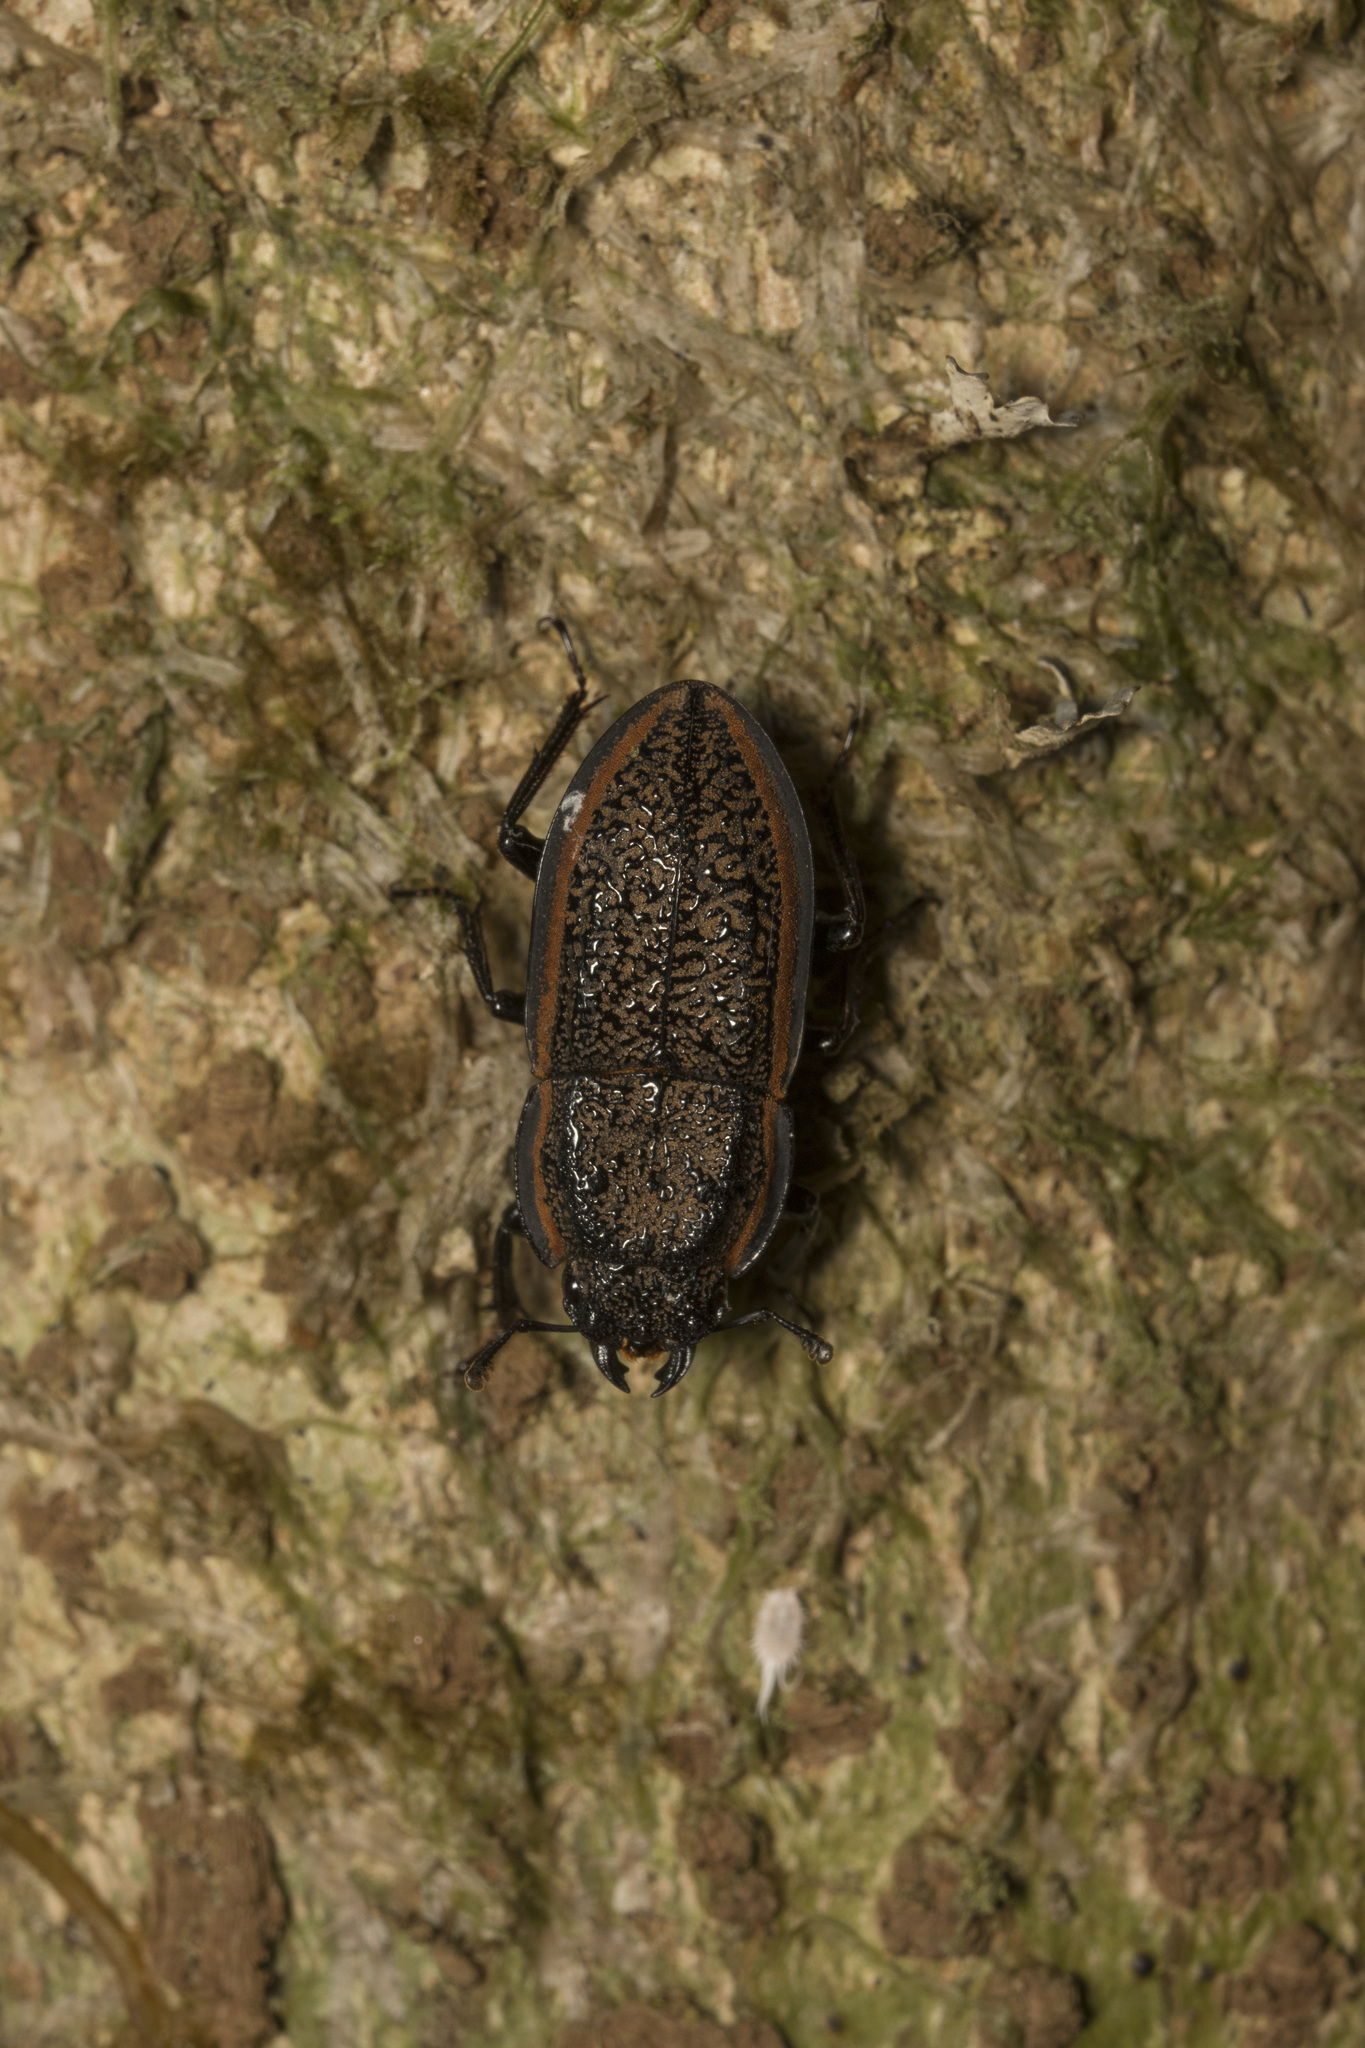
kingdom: Animalia
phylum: Arthropoda
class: Insecta
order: Coleoptera
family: Lucanidae
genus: Erichius
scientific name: Erichius caelatus
